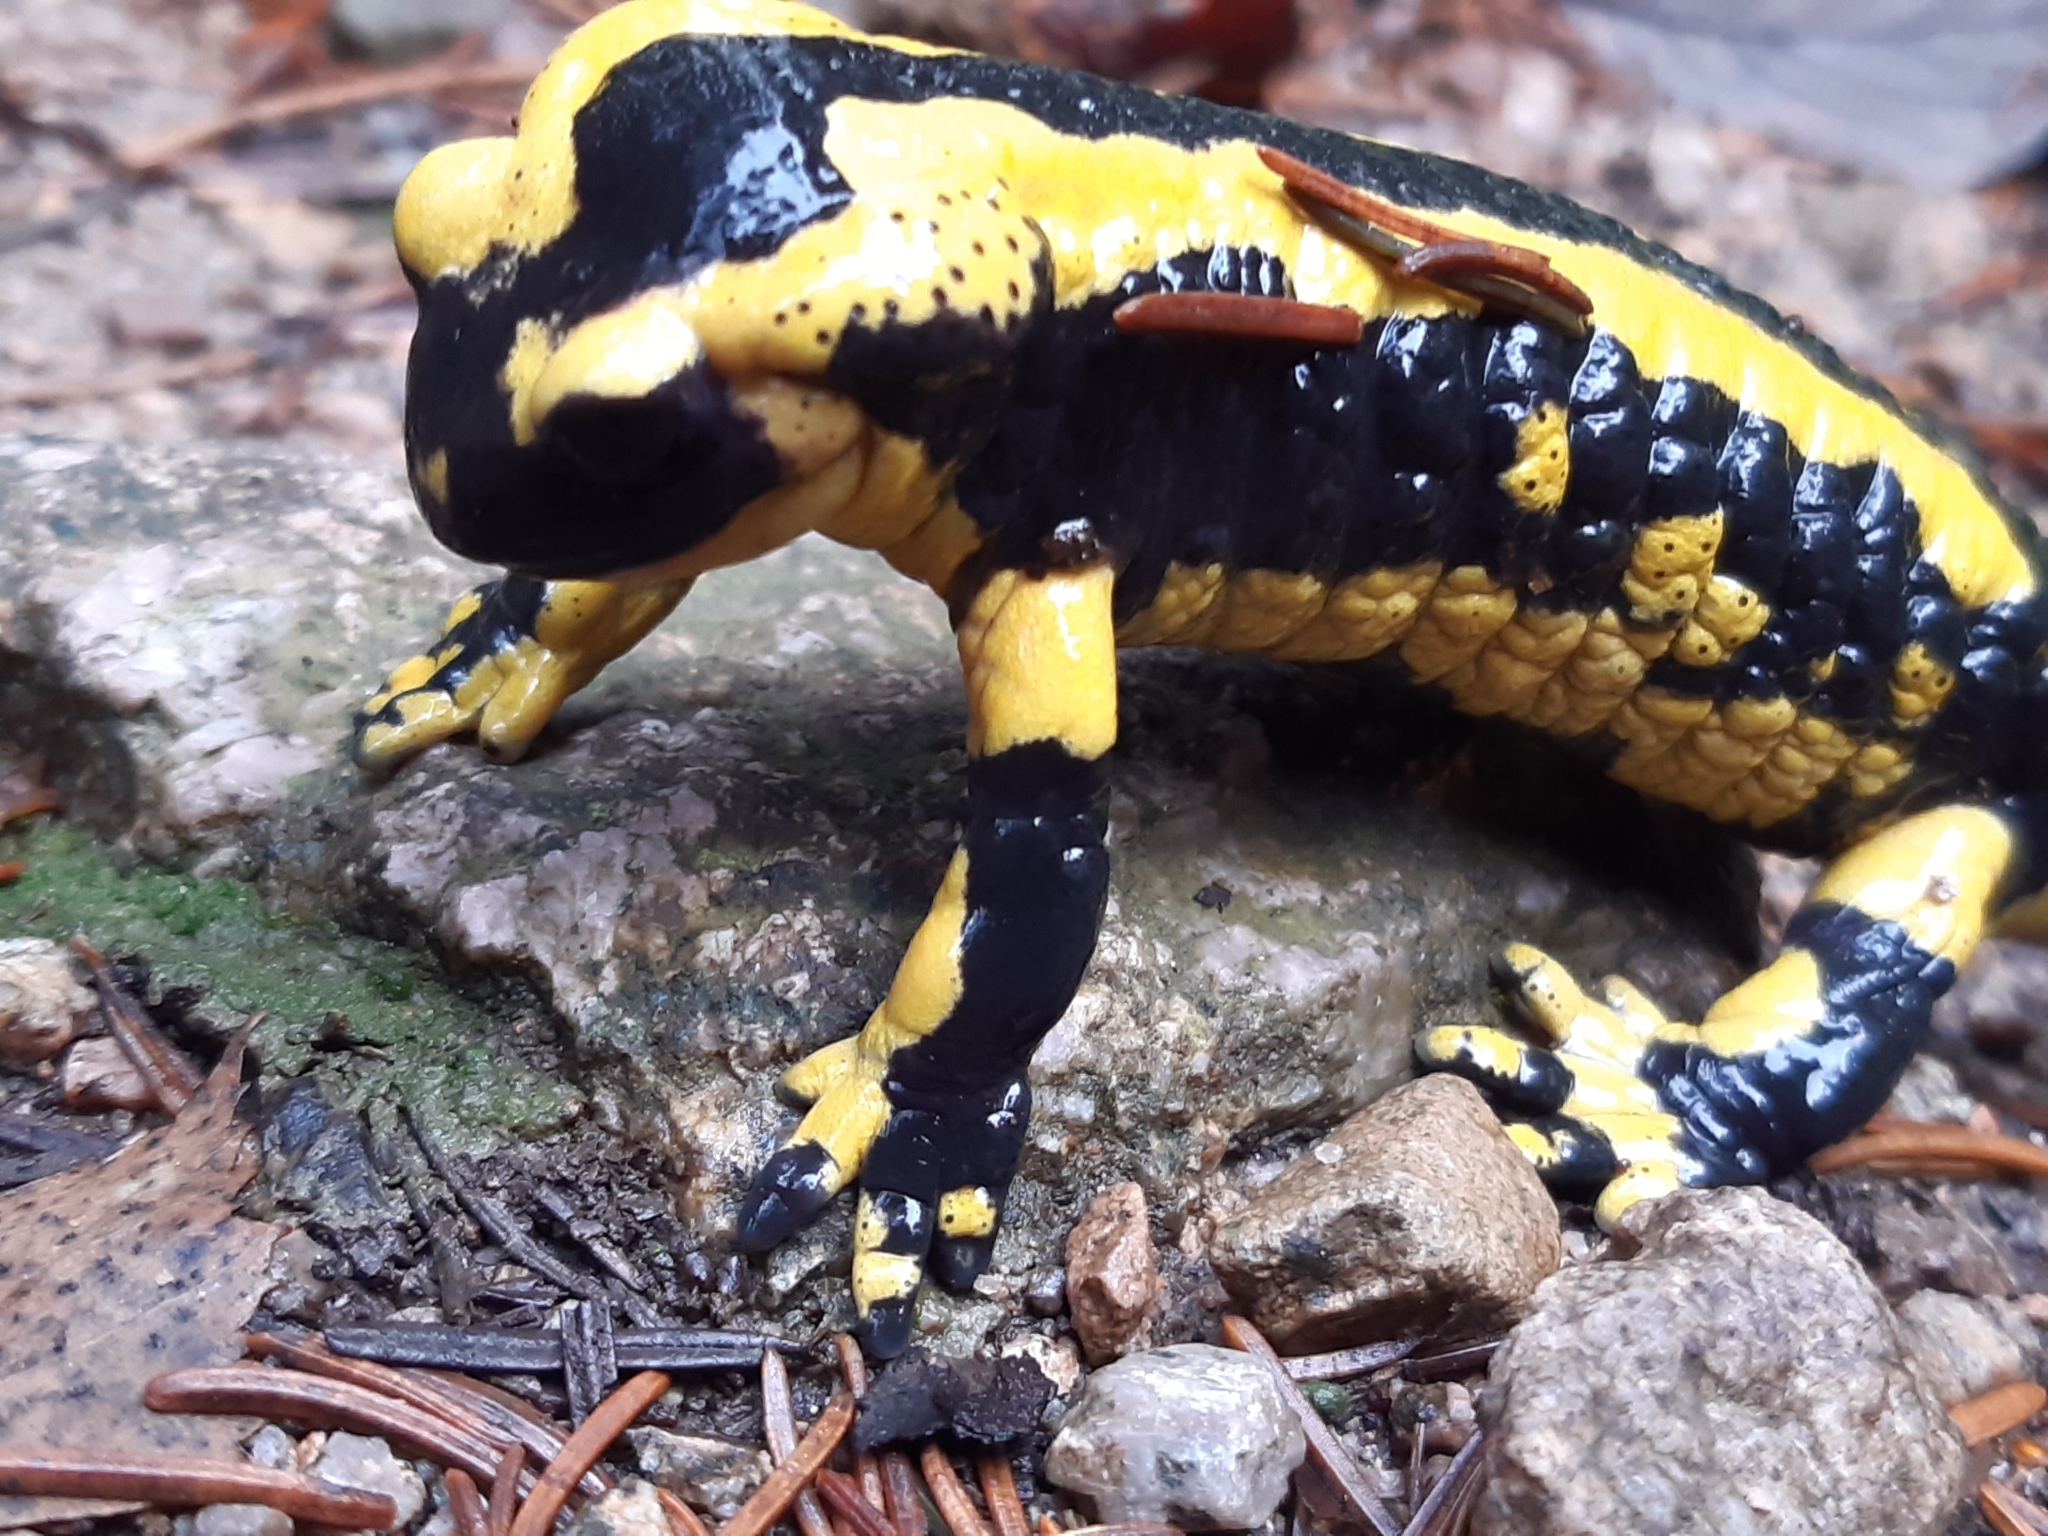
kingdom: Animalia
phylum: Chordata
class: Amphibia
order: Caudata
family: Salamandridae
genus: Salamandra
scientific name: Salamandra salamandra
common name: Fire salamander
